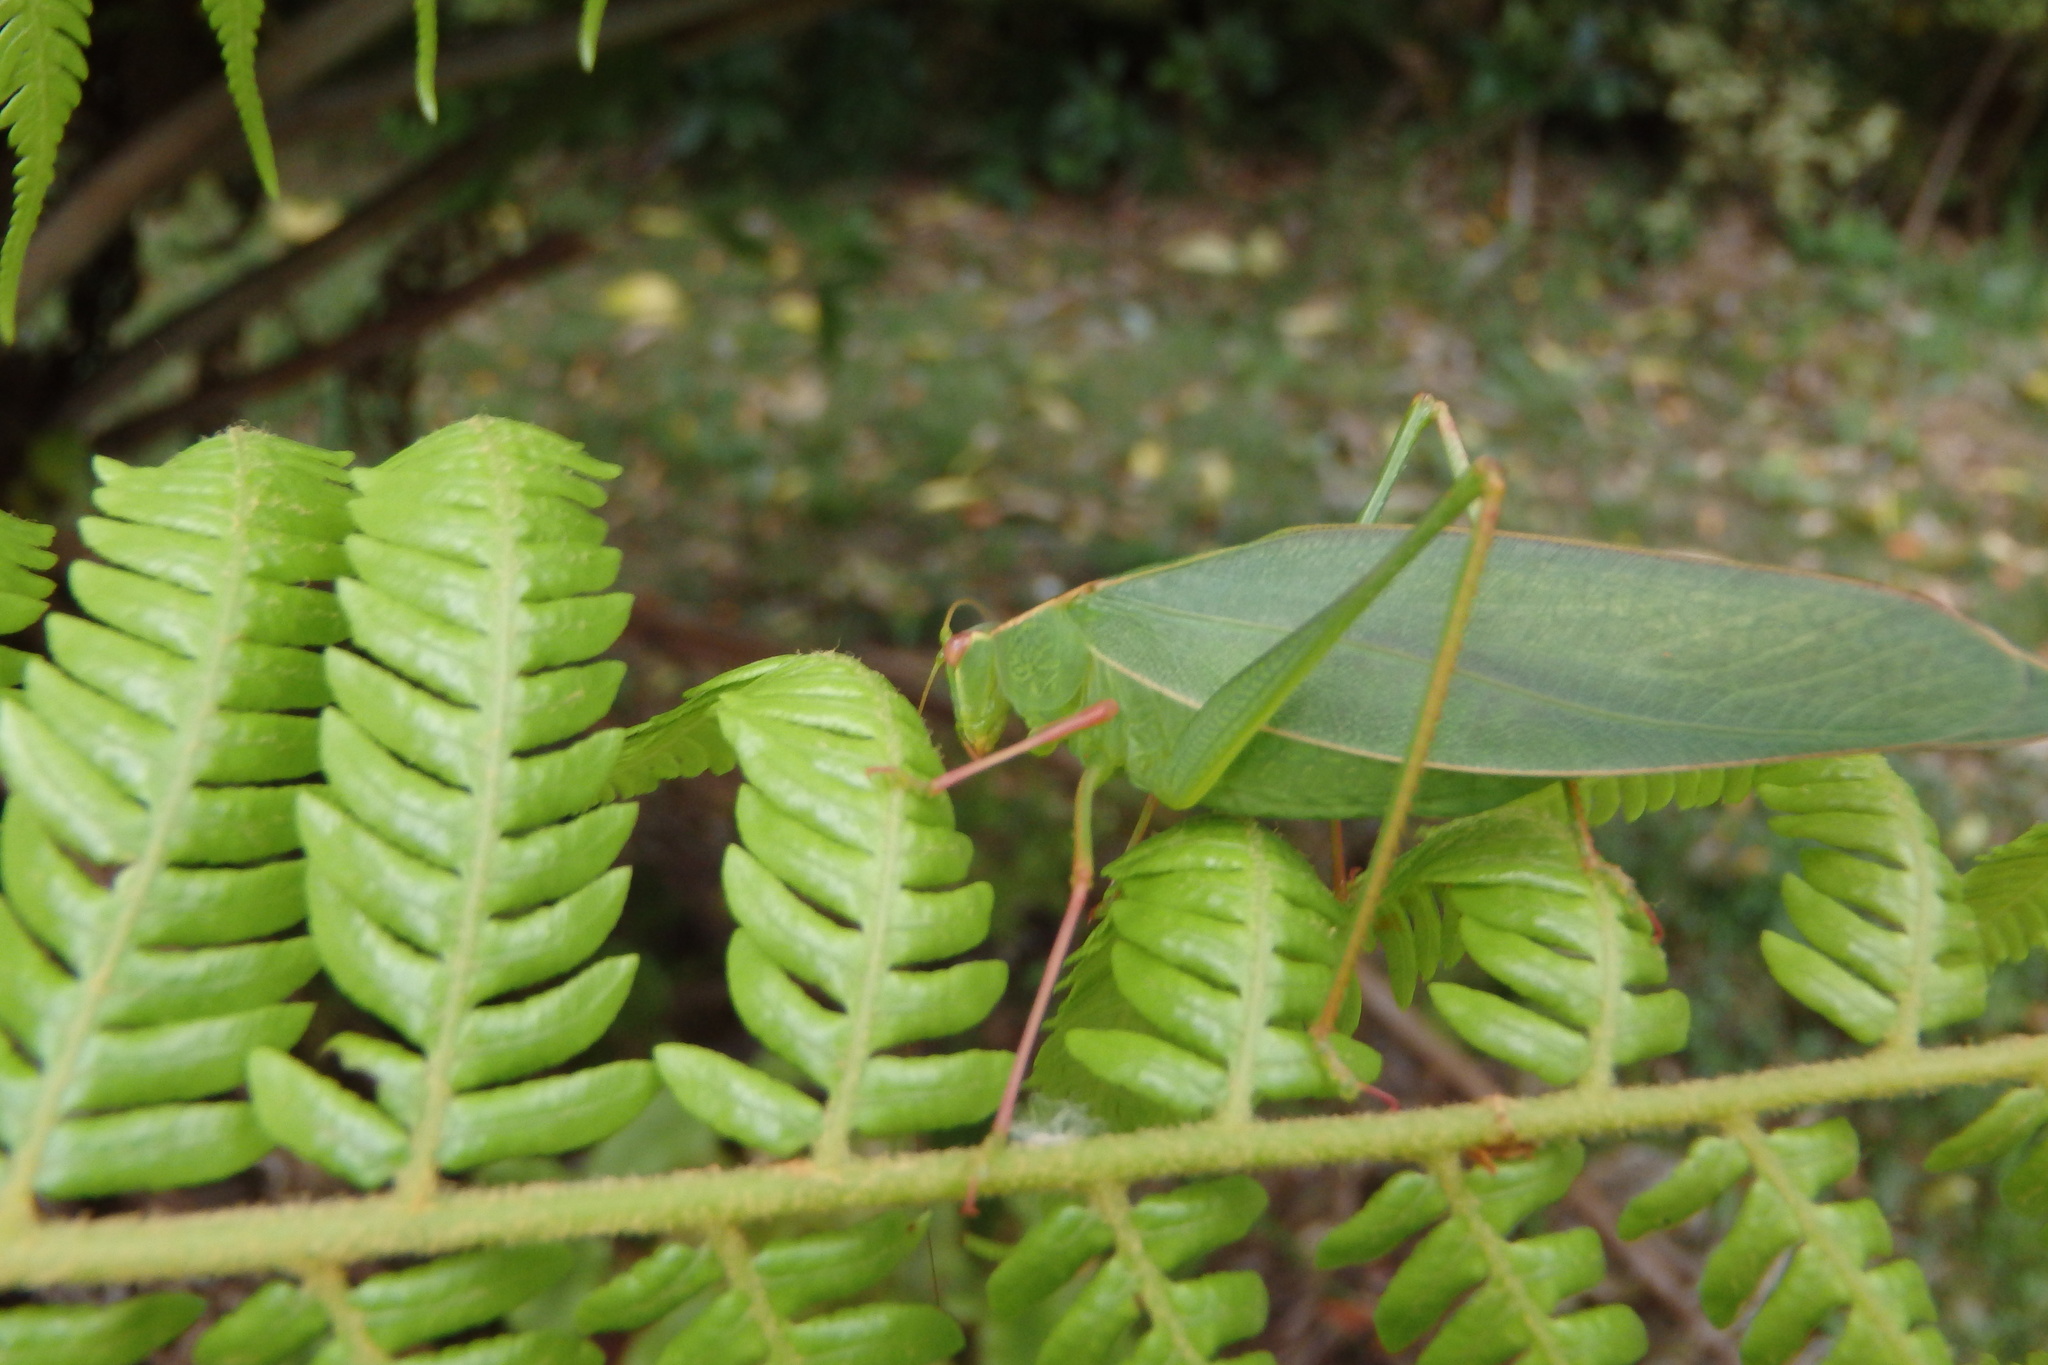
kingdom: Animalia
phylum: Arthropoda
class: Insecta
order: Orthoptera
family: Tettigoniidae
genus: Caedicia
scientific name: Caedicia simplex
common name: Common garden katydid
